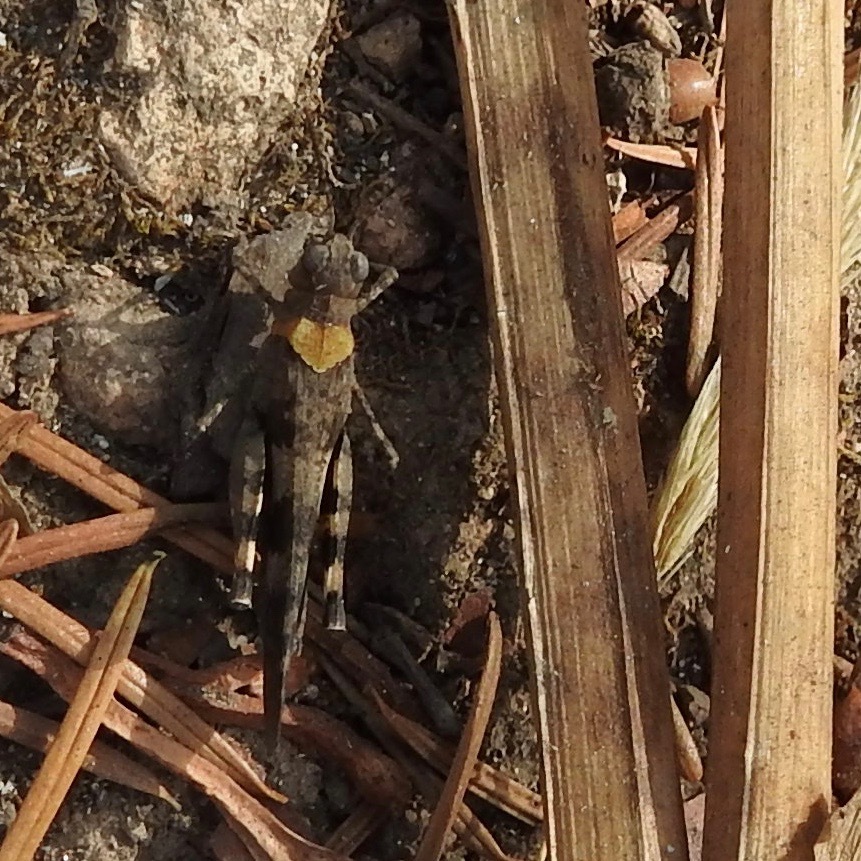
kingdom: Animalia
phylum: Arthropoda
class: Insecta
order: Orthoptera
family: Acrididae
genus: Trimerotropis
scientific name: Trimerotropis fontana
